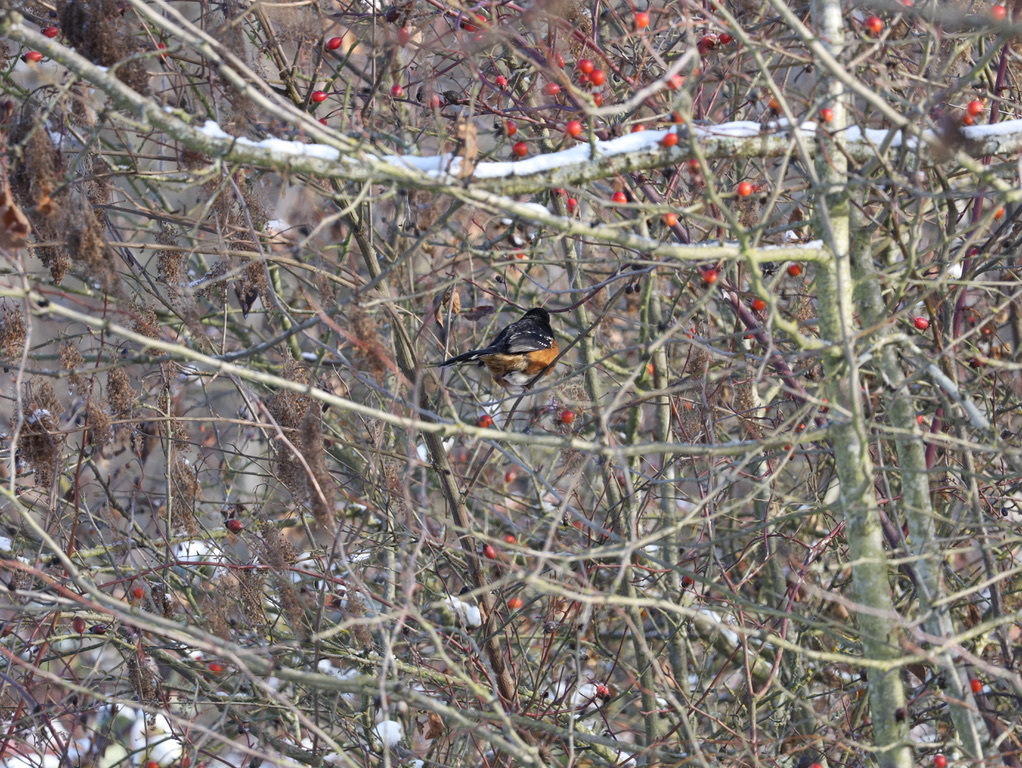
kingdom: Animalia
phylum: Chordata
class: Aves
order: Passeriformes
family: Passerellidae
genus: Pipilo
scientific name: Pipilo maculatus
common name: Spotted towhee
